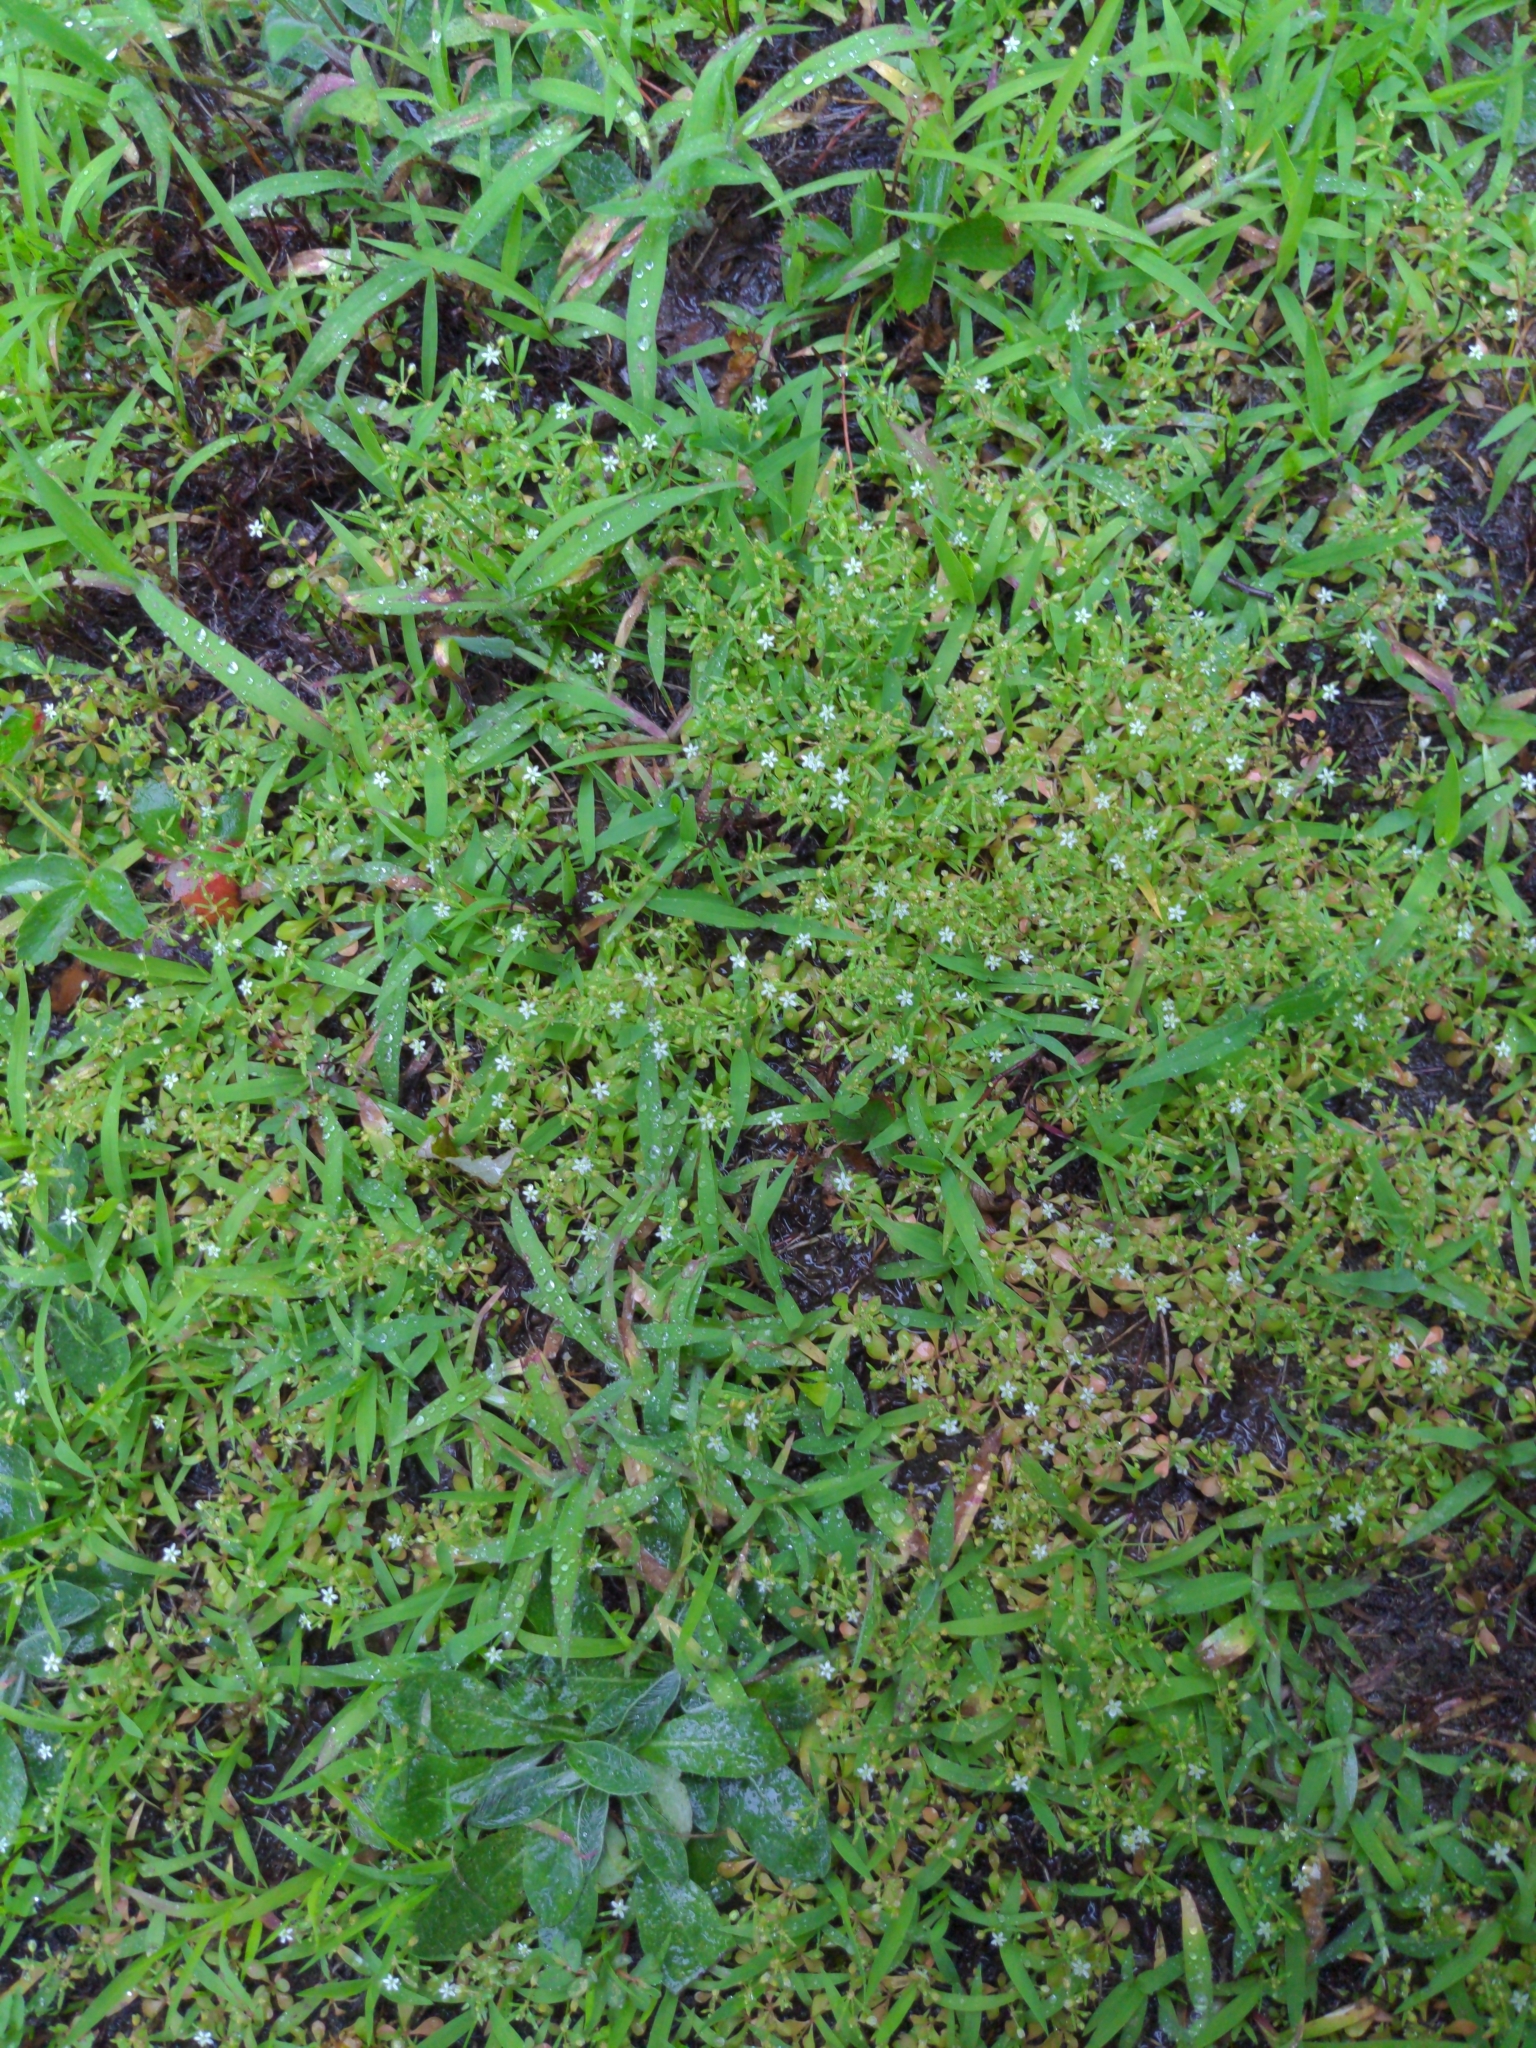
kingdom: Plantae
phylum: Tracheophyta
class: Magnoliopsida
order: Caryophyllales
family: Molluginaceae
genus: Mollugo
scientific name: Mollugo verticillata
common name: Green carpetweed
